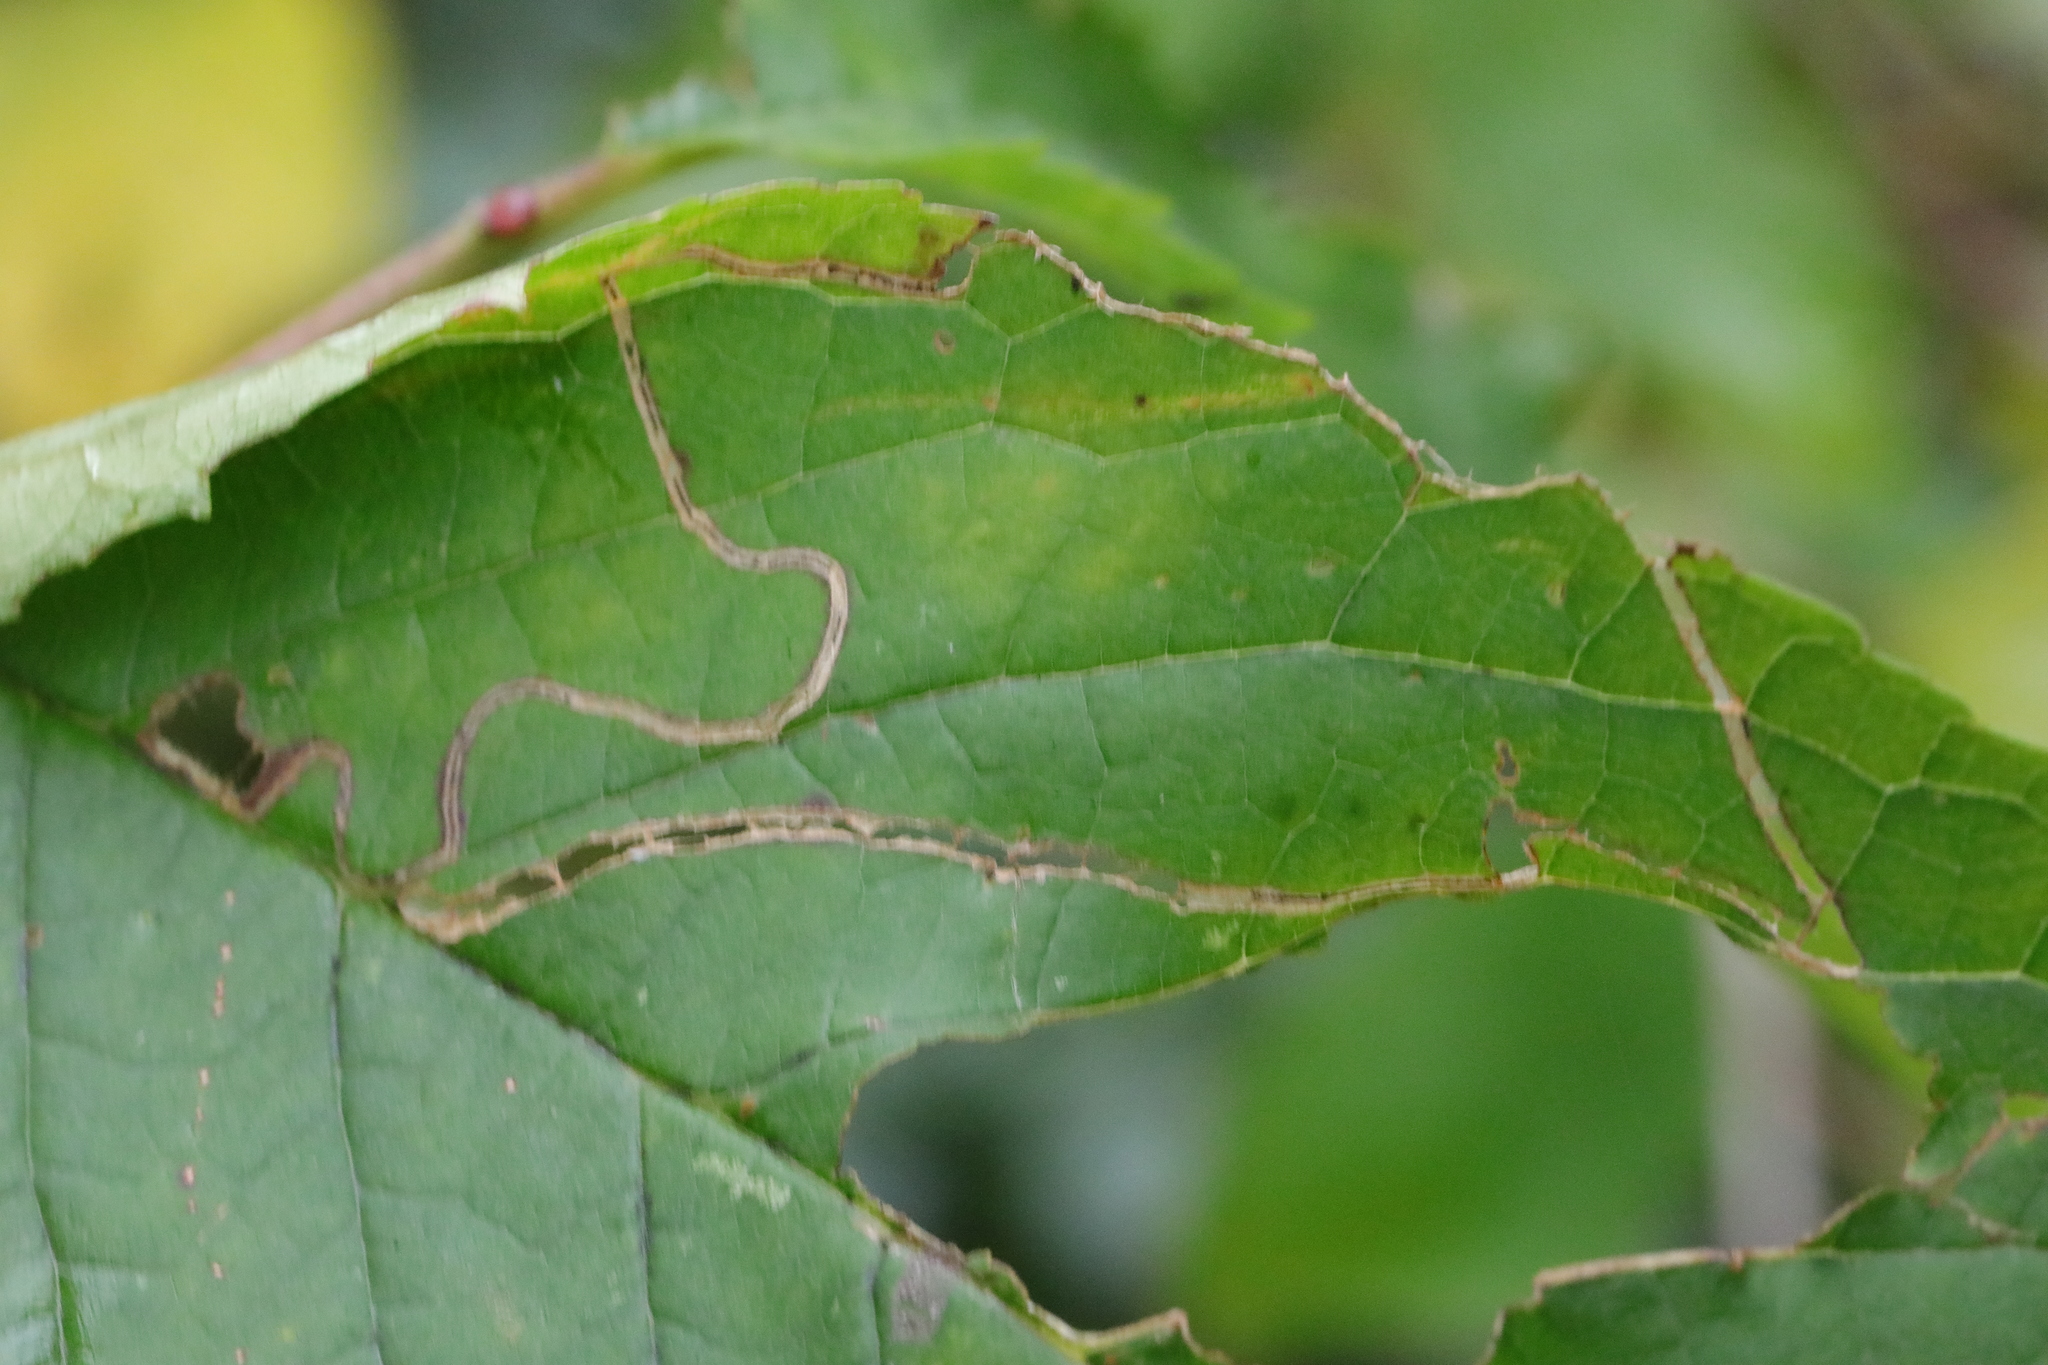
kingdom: Animalia
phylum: Arthropoda
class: Insecta
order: Lepidoptera
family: Lyonetiidae
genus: Lyonetia
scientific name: Lyonetia clerkella
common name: Apple leaf miner
